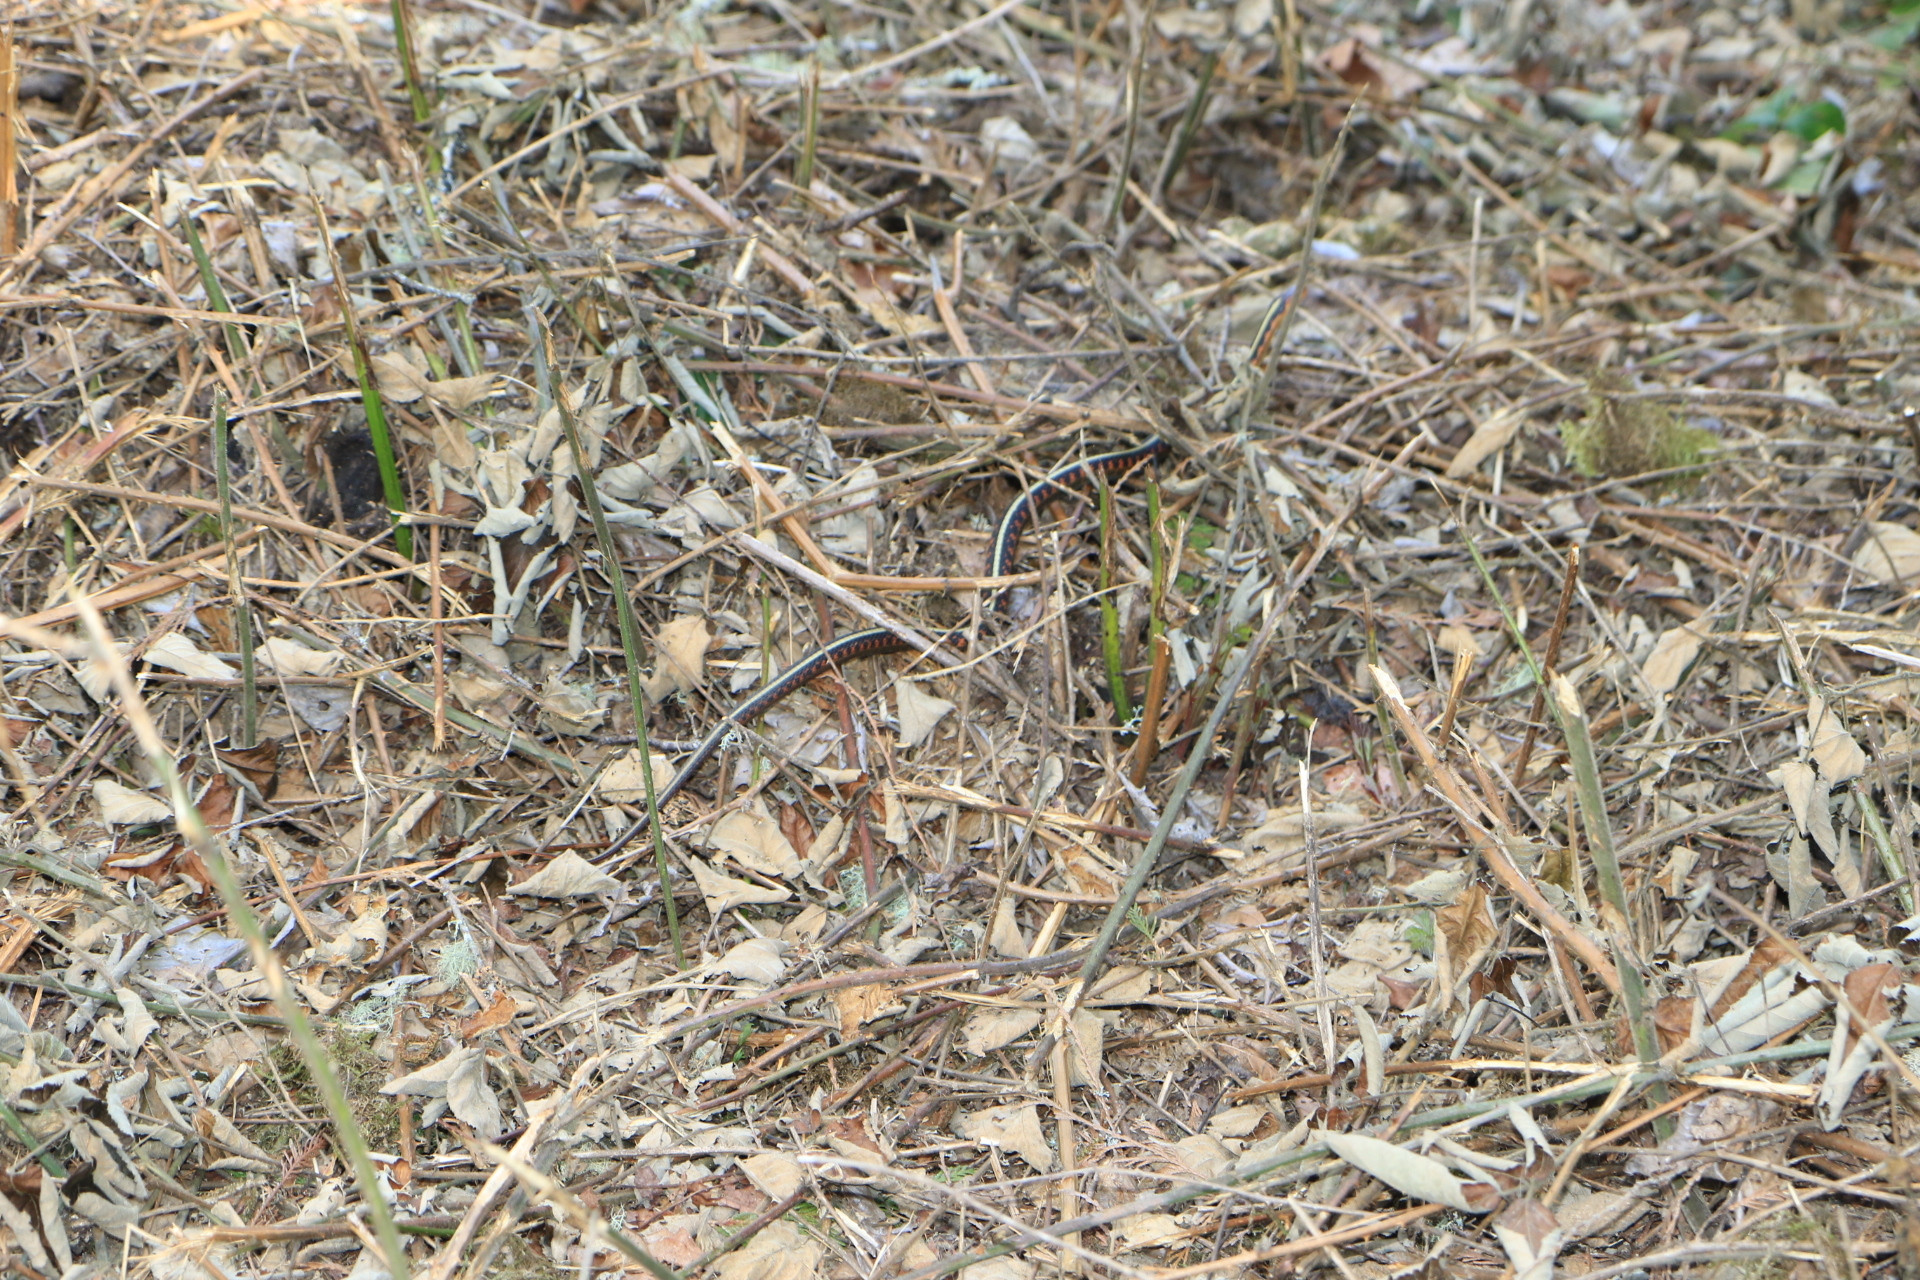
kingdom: Animalia
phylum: Chordata
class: Squamata
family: Colubridae
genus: Thamnophis
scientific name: Thamnophis sirtalis
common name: Common garter snake
